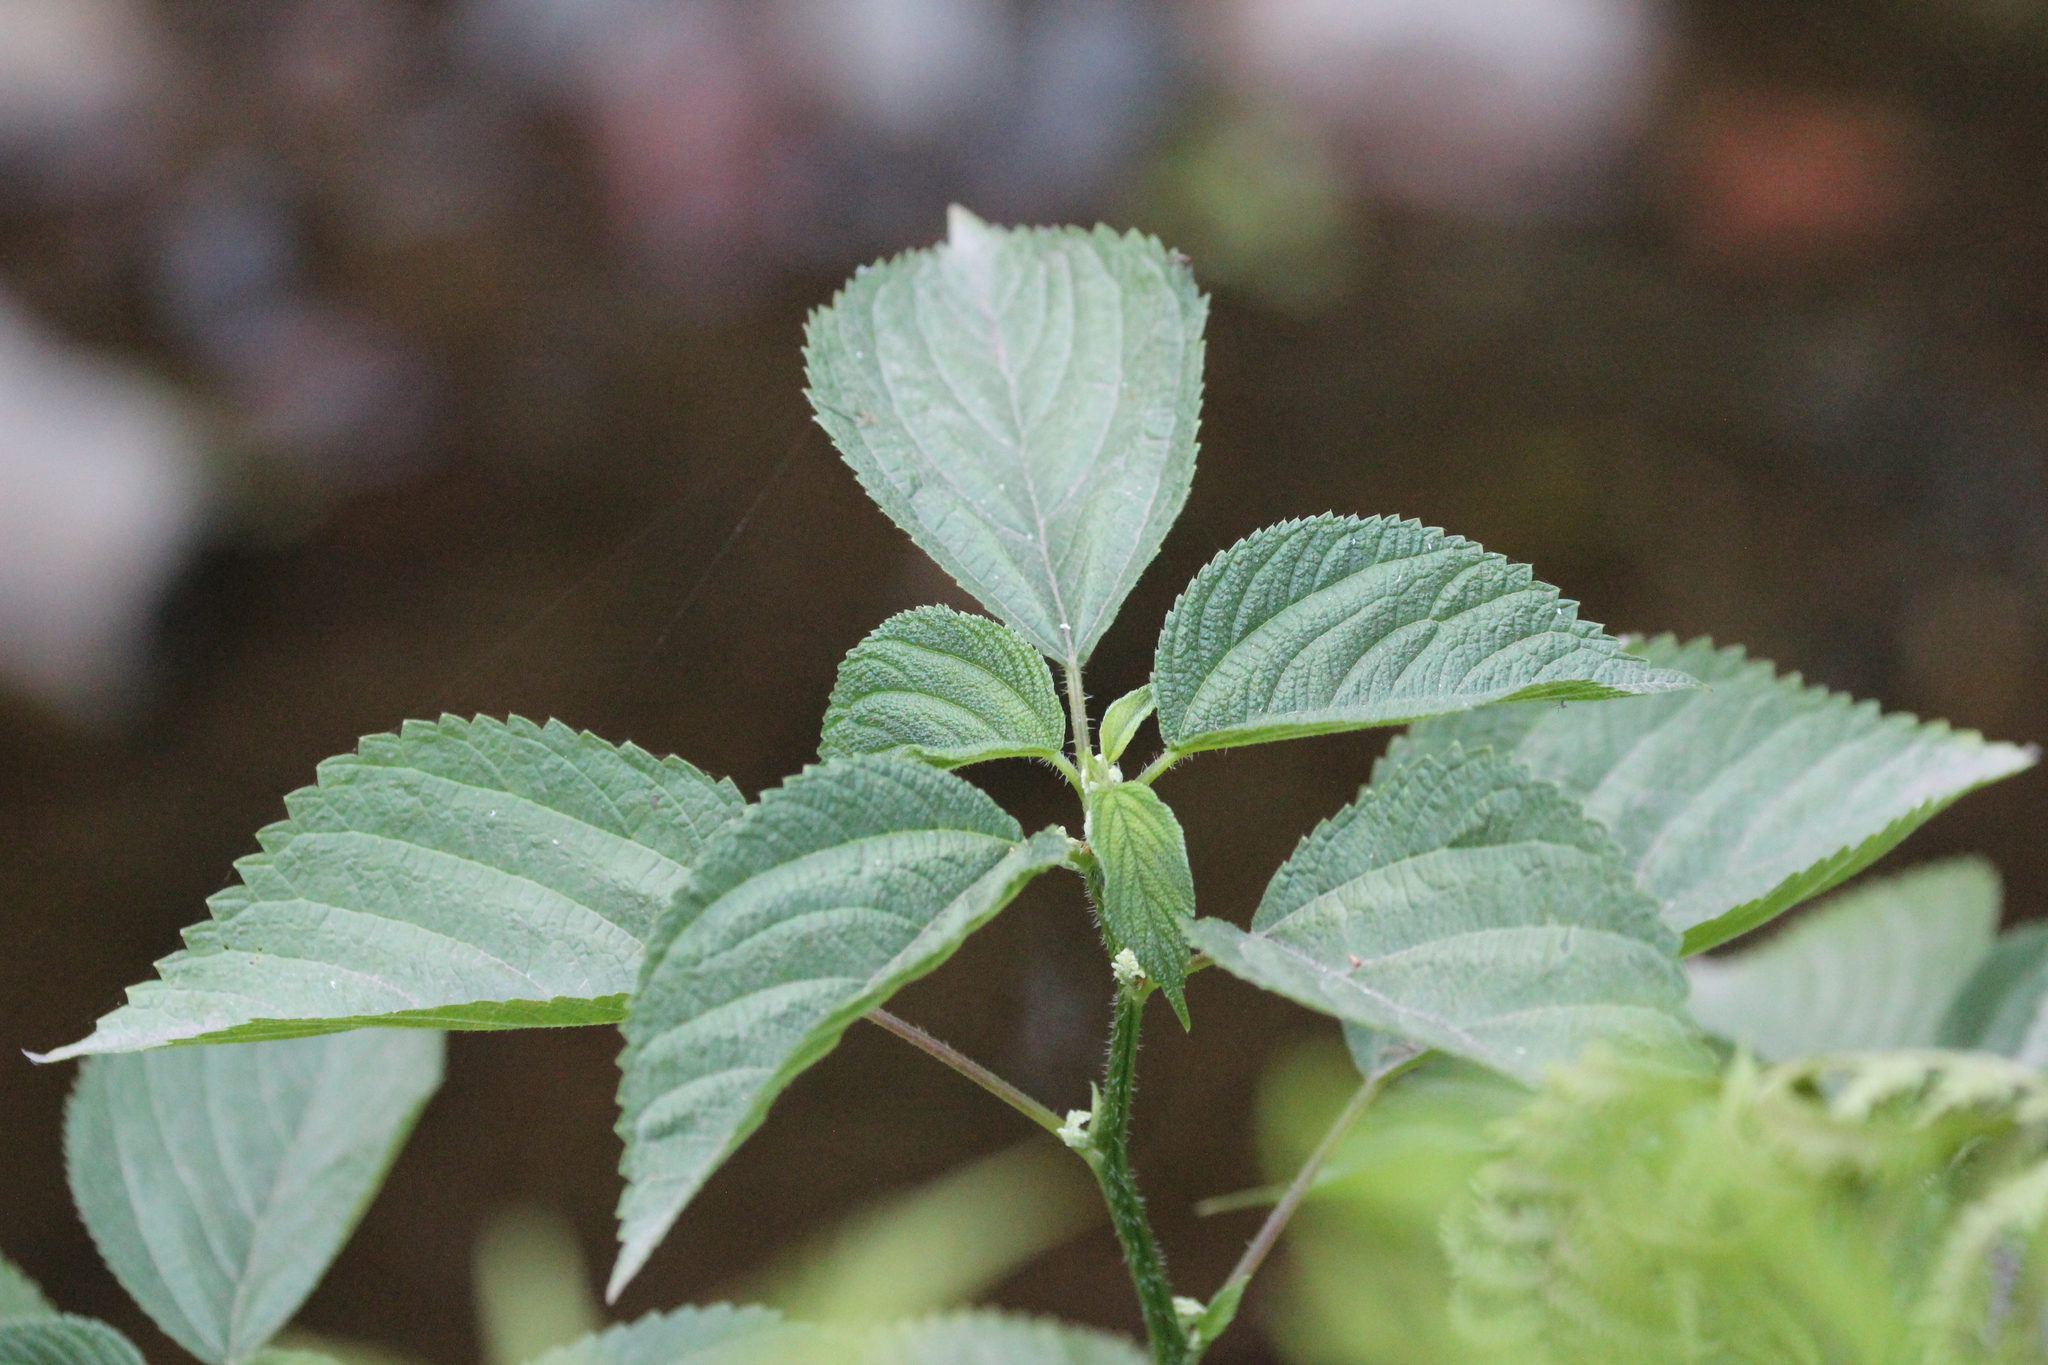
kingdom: Plantae
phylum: Tracheophyta
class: Magnoliopsida
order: Rosales
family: Urticaceae
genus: Laportea
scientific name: Laportea canadensis
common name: Canada nettle
